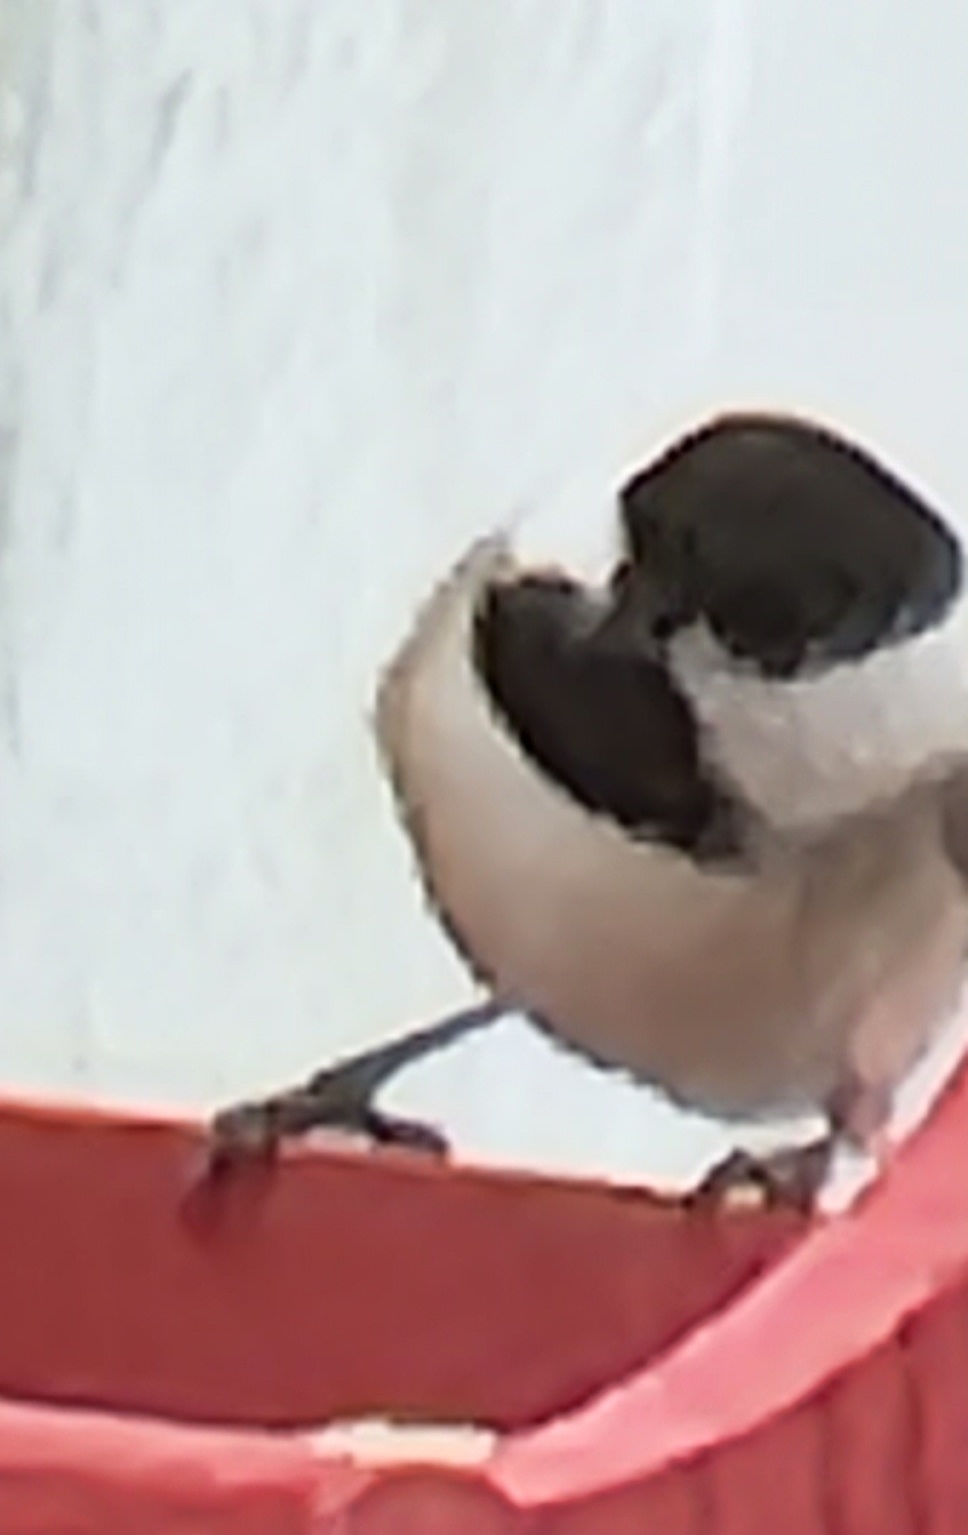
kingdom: Animalia
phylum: Chordata
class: Aves
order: Passeriformes
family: Paridae
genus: Poecile
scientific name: Poecile carolinensis
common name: Carolina chickadee
